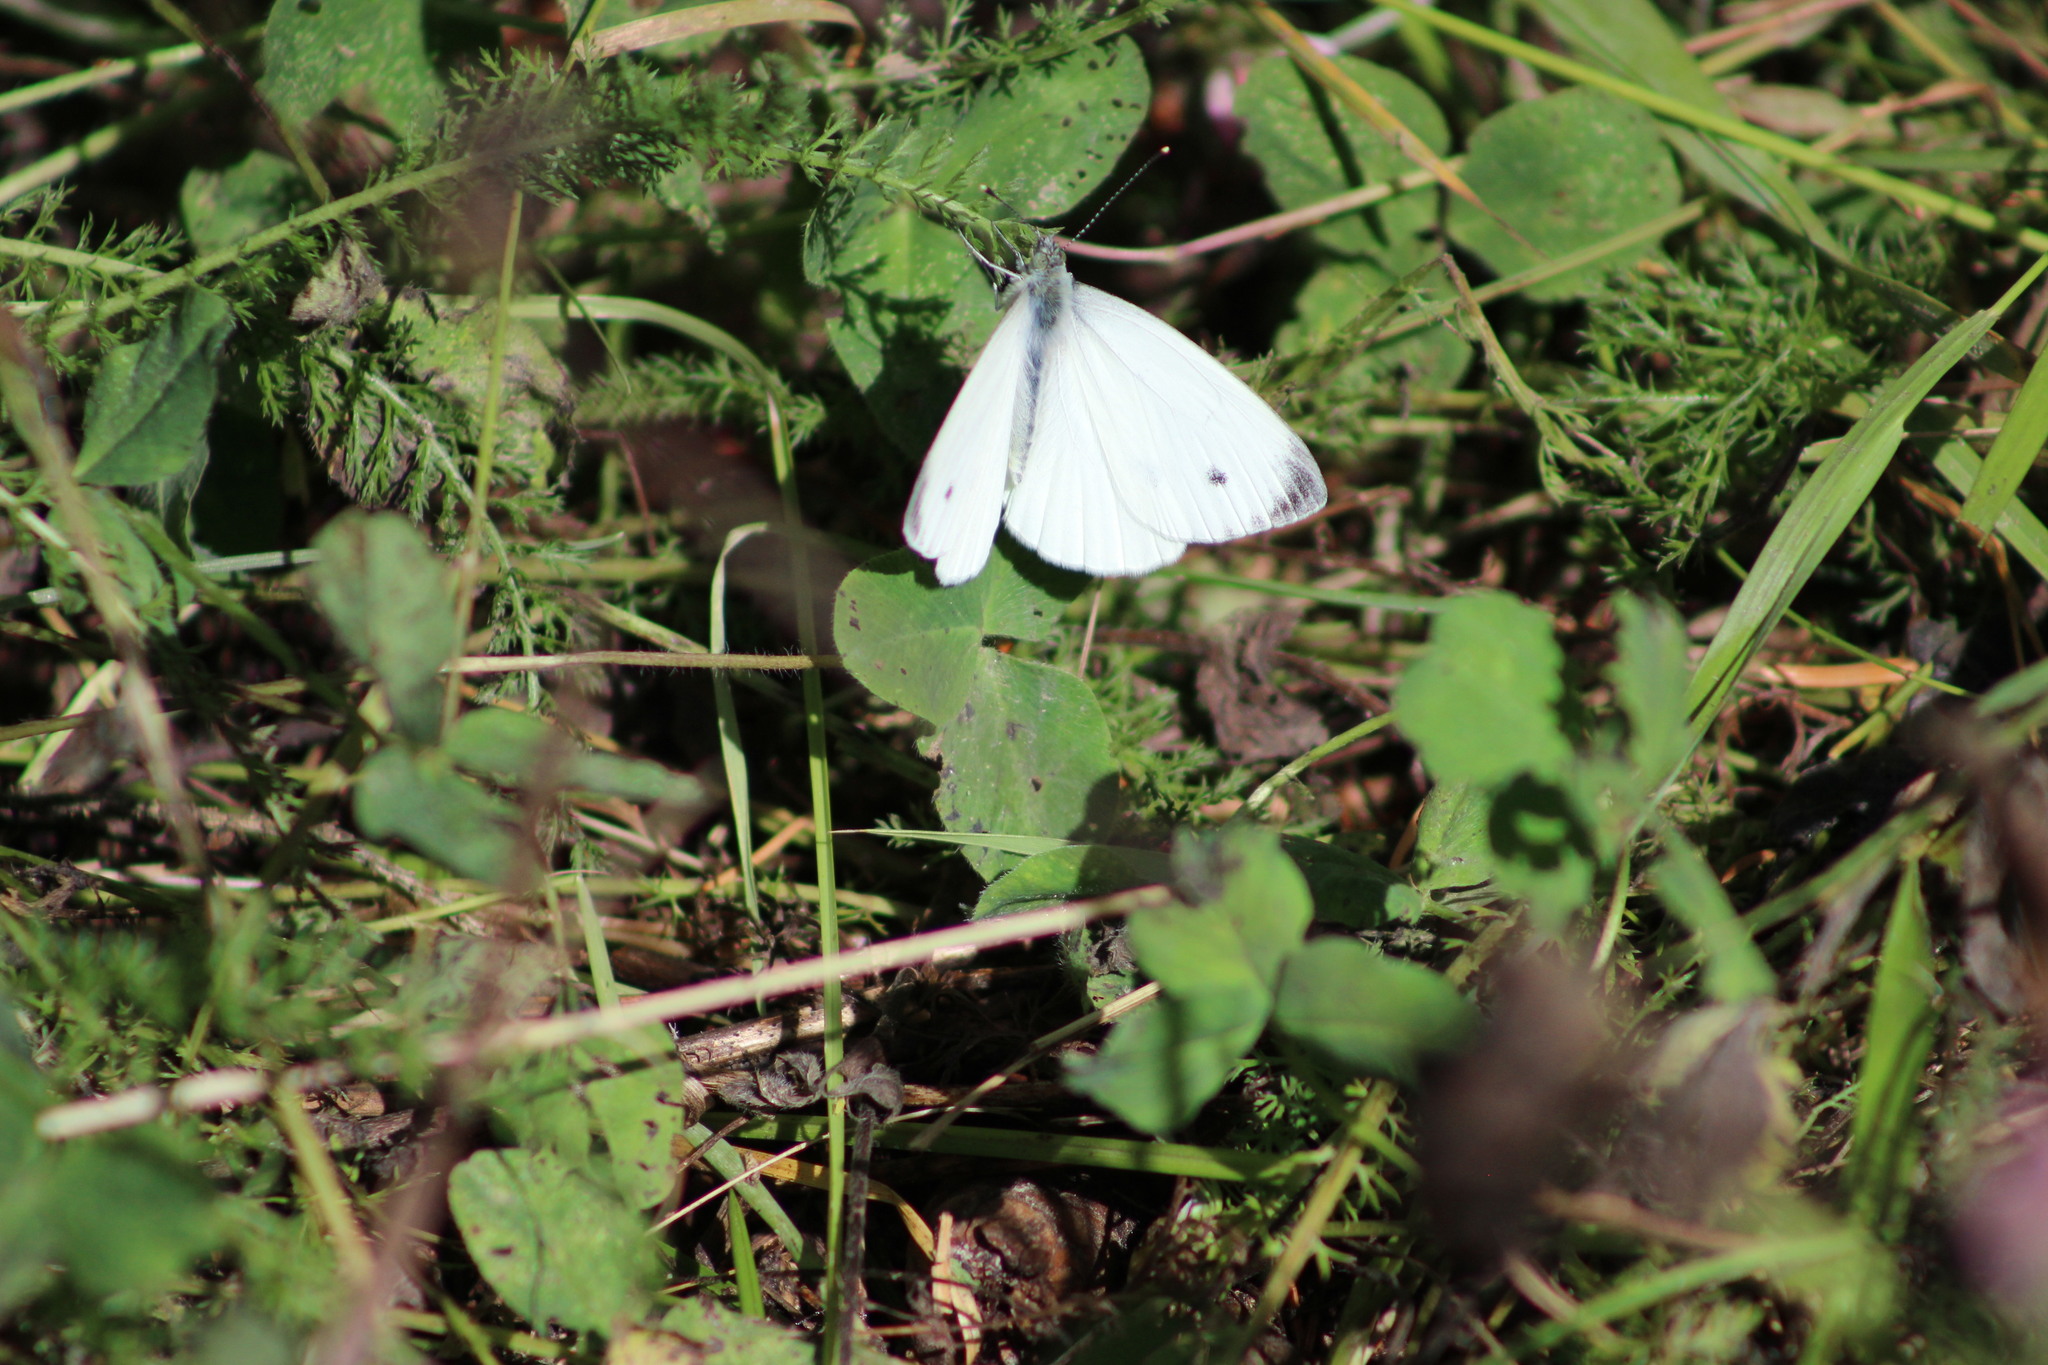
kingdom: Animalia
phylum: Arthropoda
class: Insecta
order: Lepidoptera
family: Pieridae
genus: Pieris
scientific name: Pieris napi
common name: Green-veined white
